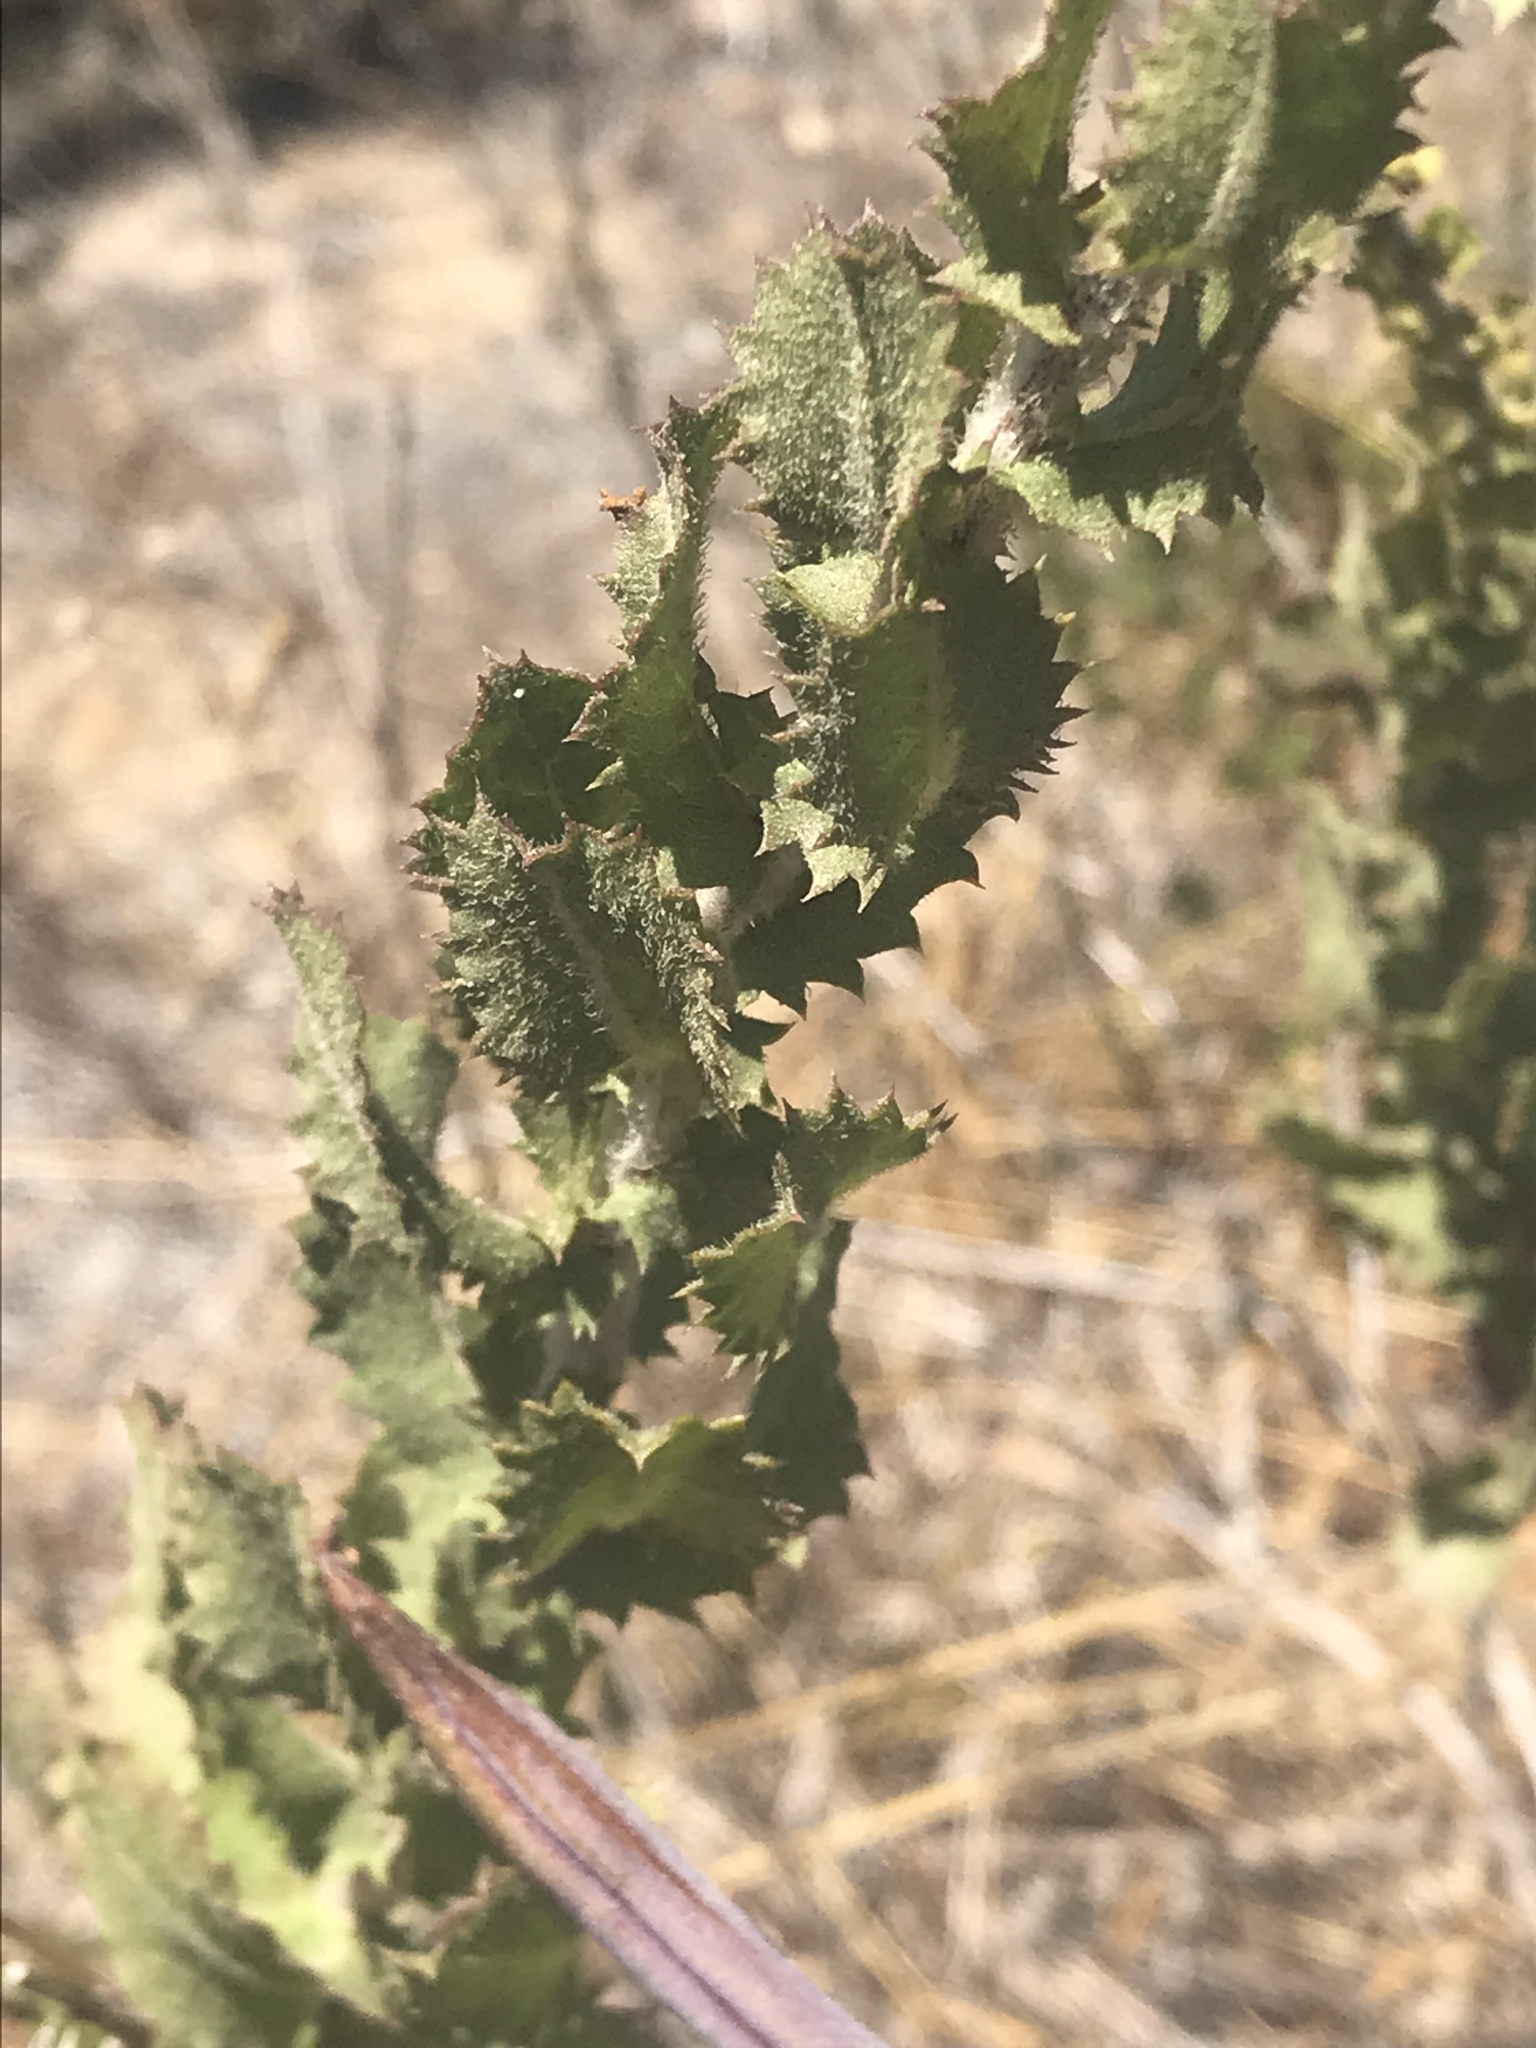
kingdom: Plantae
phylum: Tracheophyta
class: Magnoliopsida
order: Asterales
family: Asteraceae
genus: Hazardia
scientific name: Hazardia squarrosa
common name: Saw-tooth goldenbush
